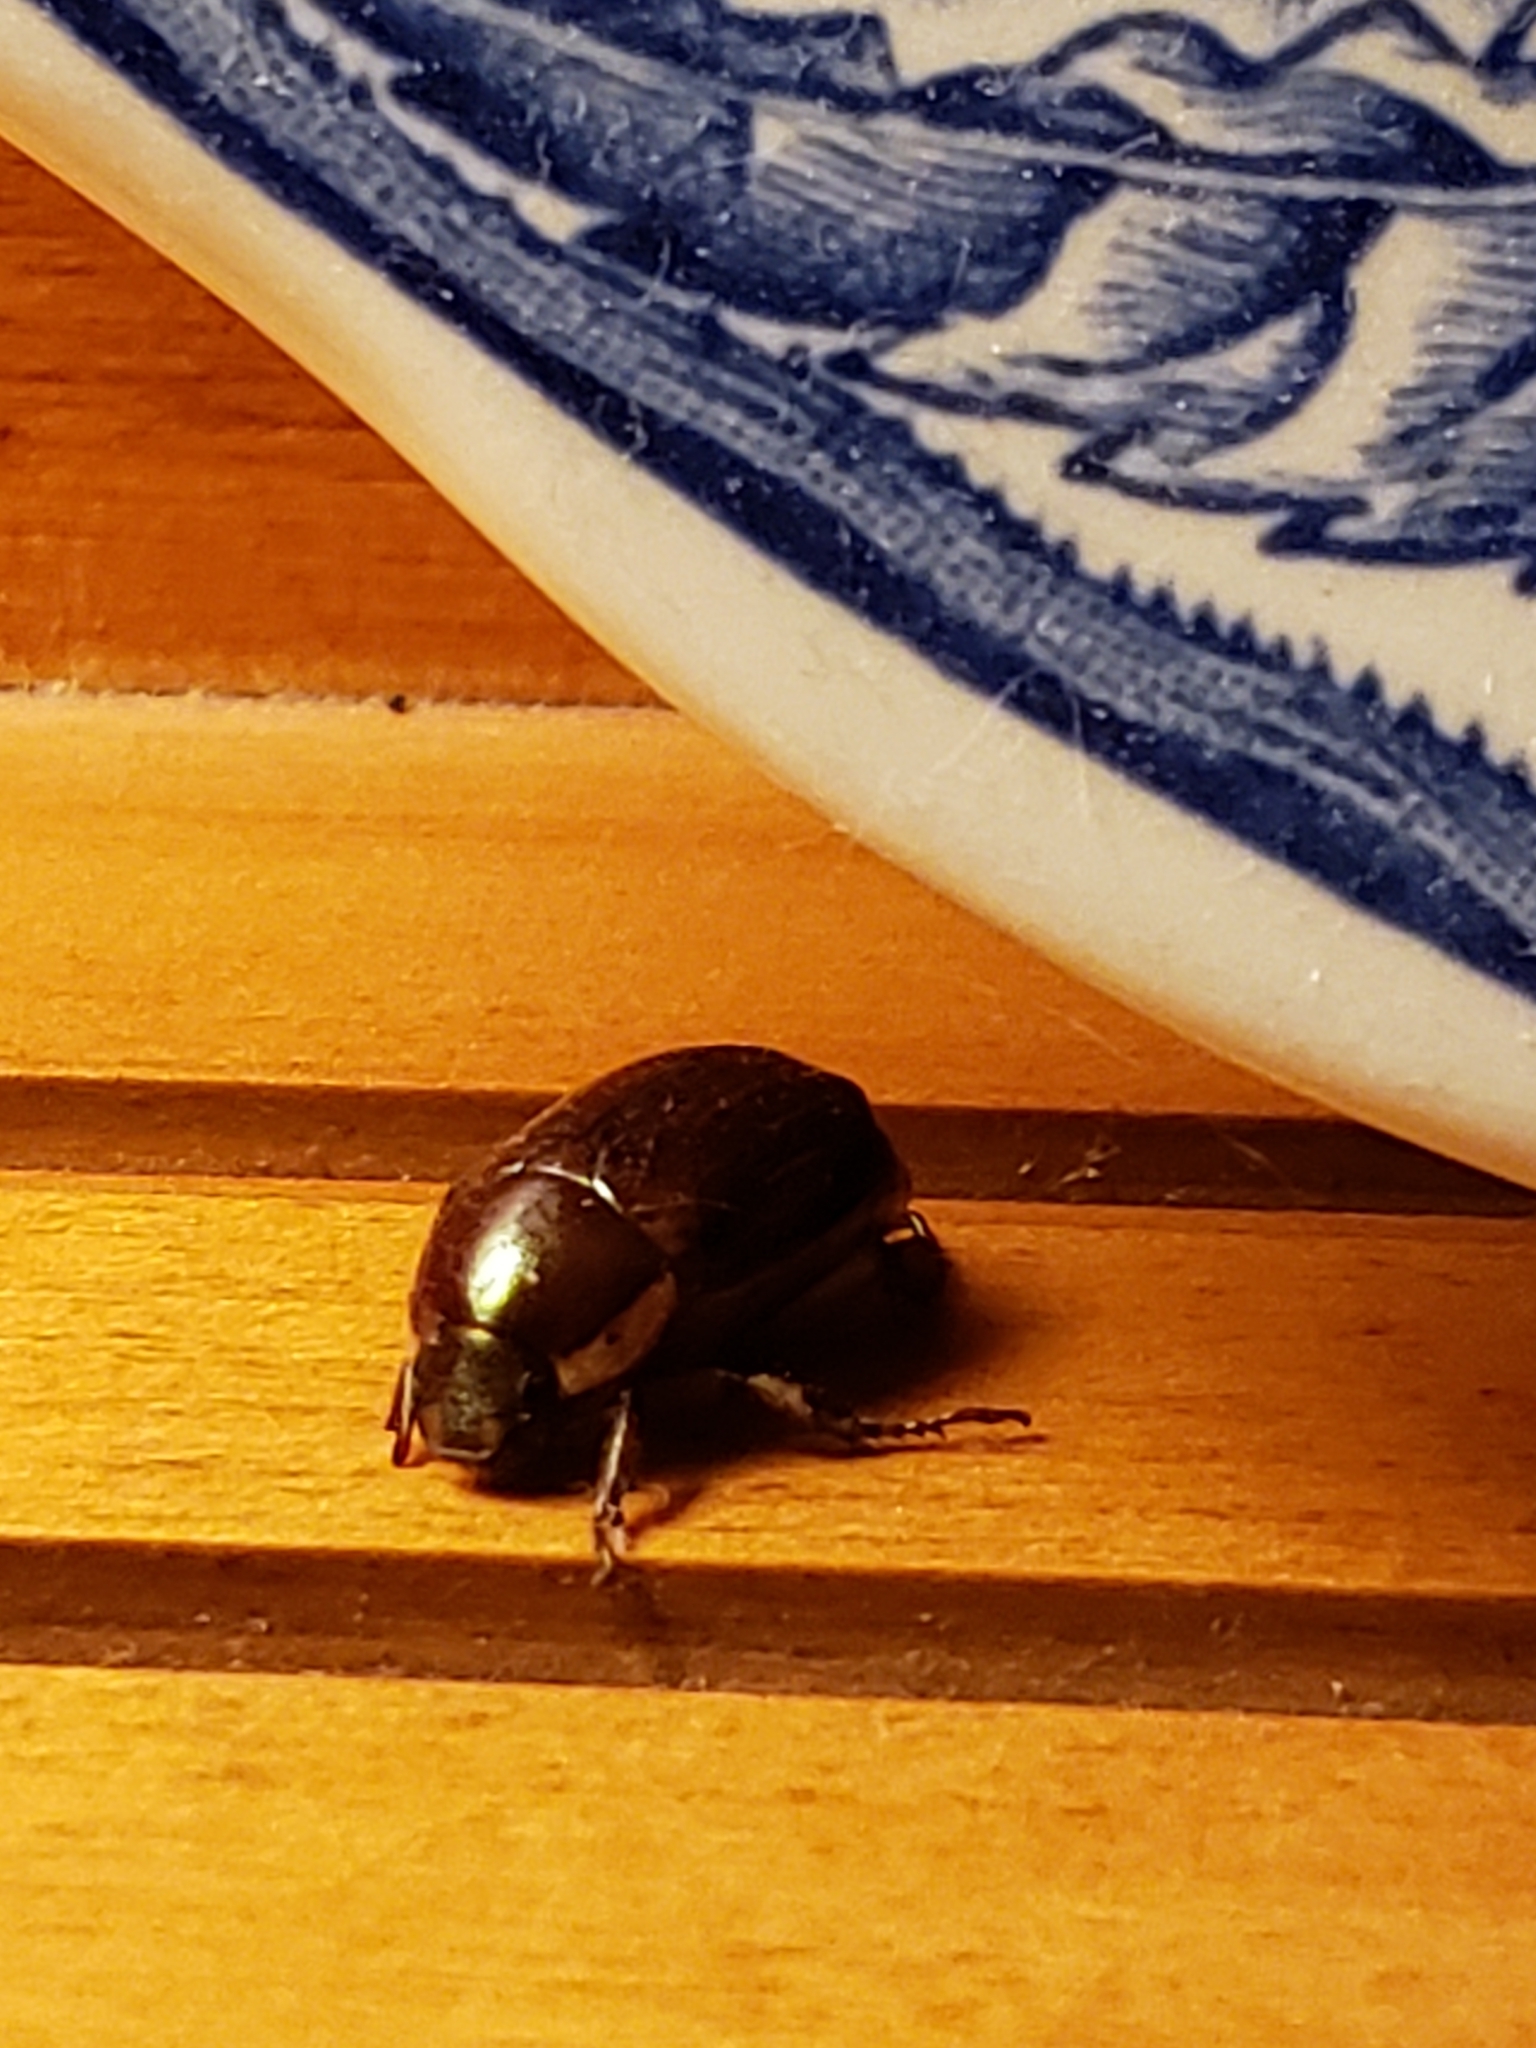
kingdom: Animalia
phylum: Arthropoda
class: Insecta
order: Coleoptera
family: Scarabaeidae
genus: Callistethus
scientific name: Callistethus marginatus
